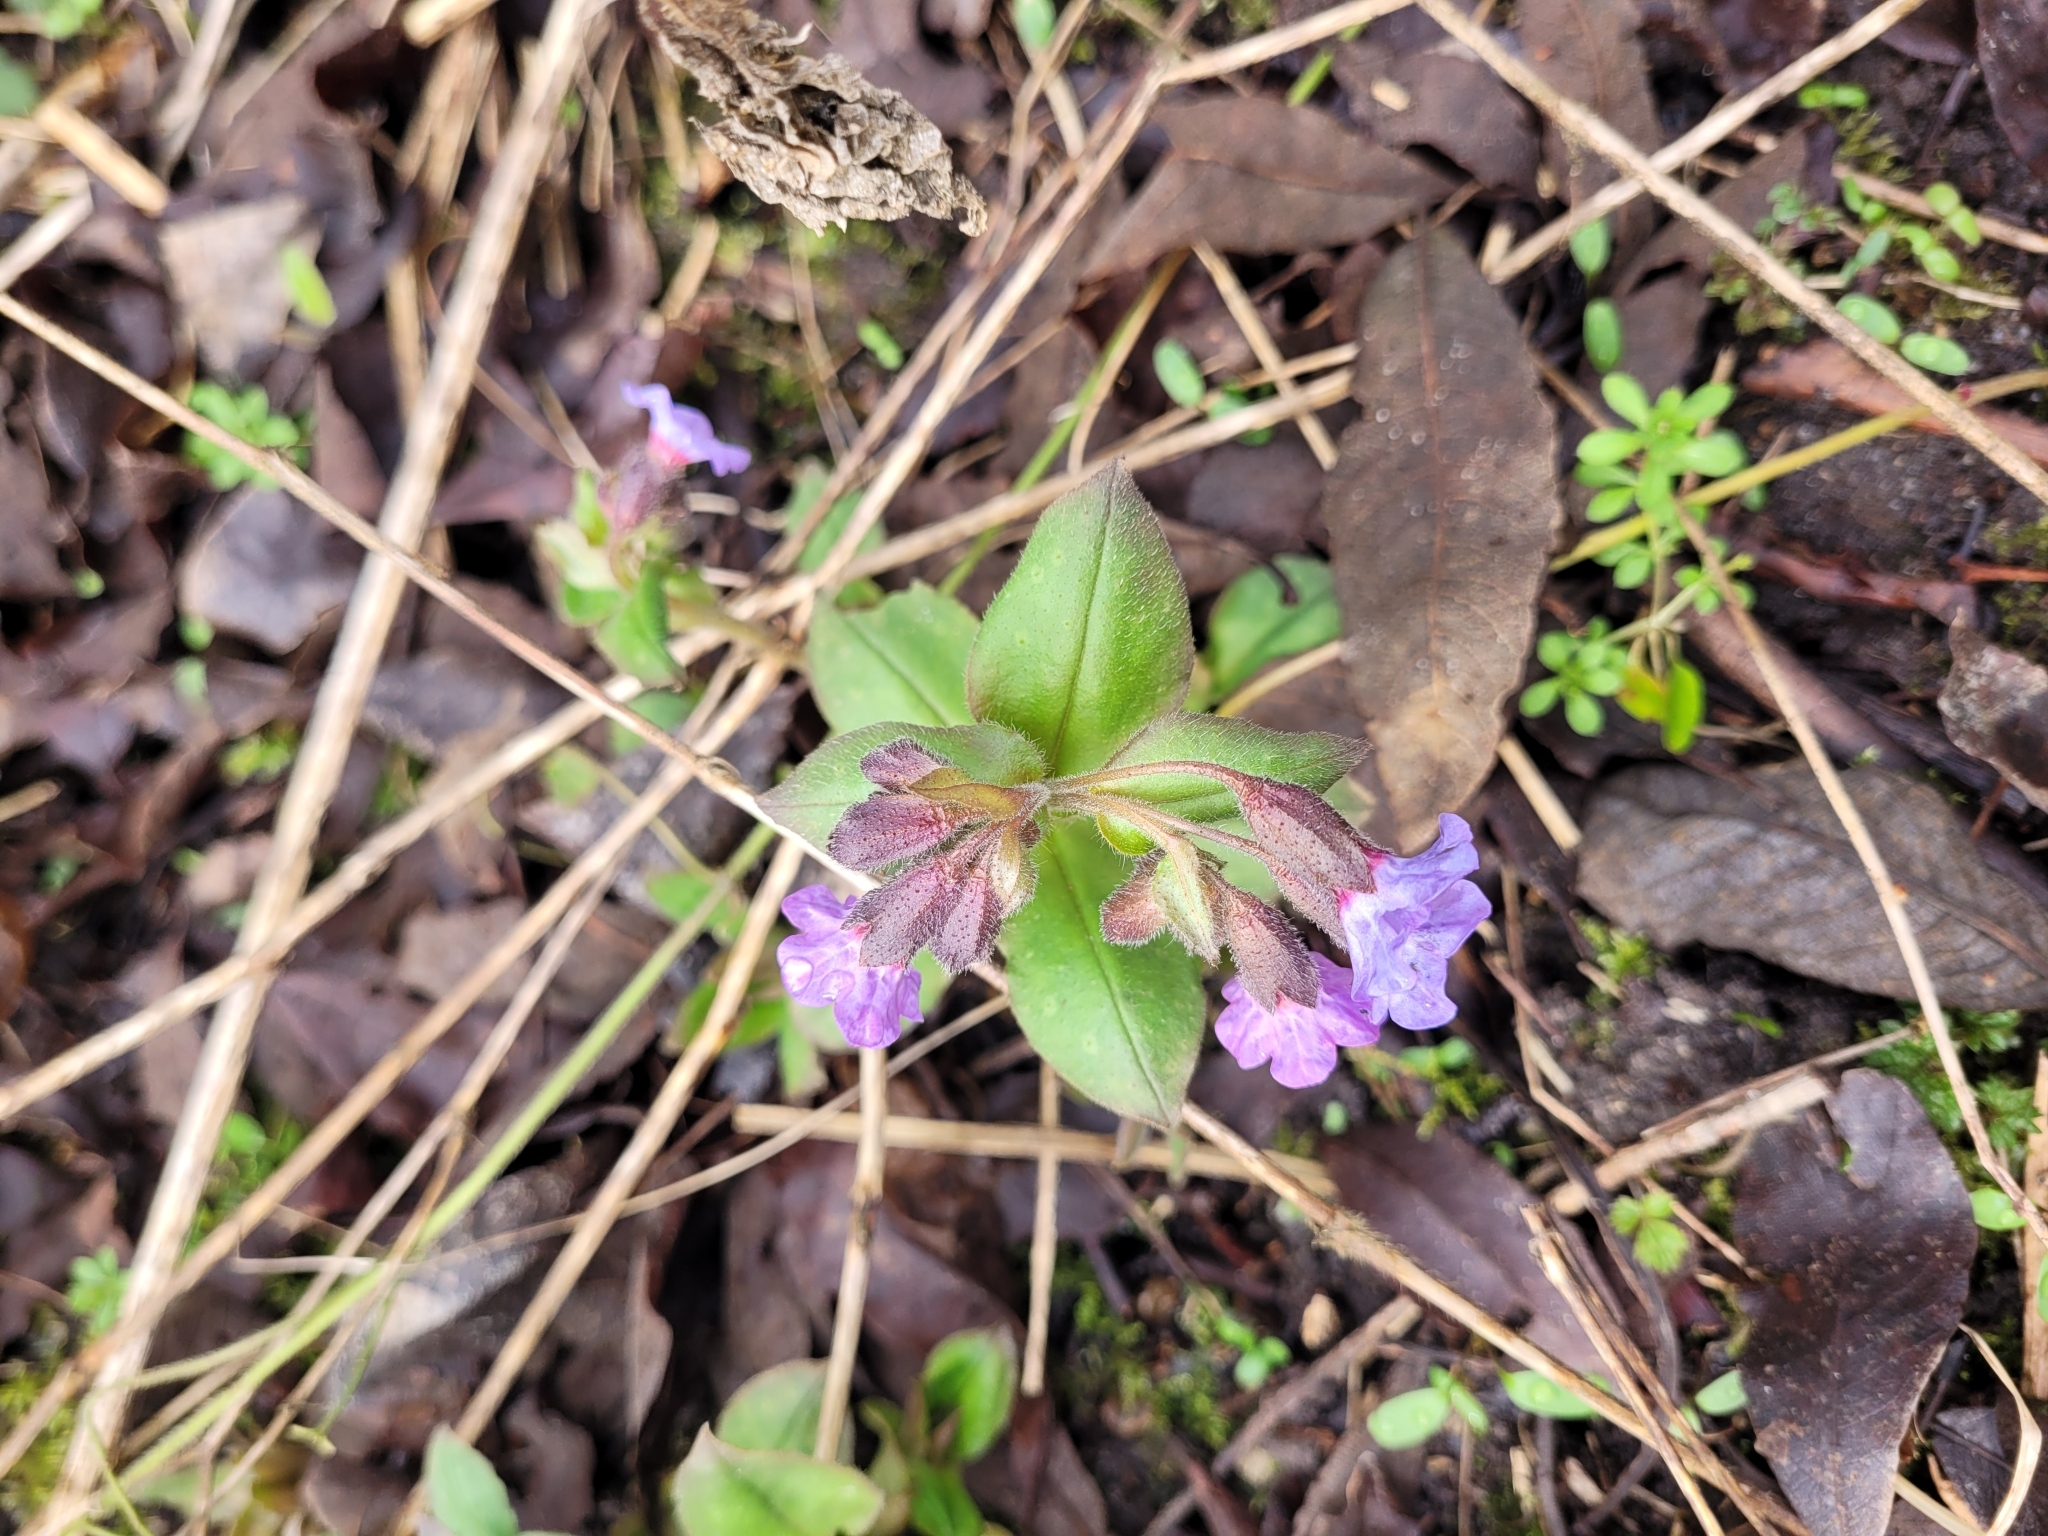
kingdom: Plantae
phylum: Tracheophyta
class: Magnoliopsida
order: Boraginales
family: Boraginaceae
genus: Pulmonaria
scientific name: Pulmonaria obscura
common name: Suffolk lungwort
